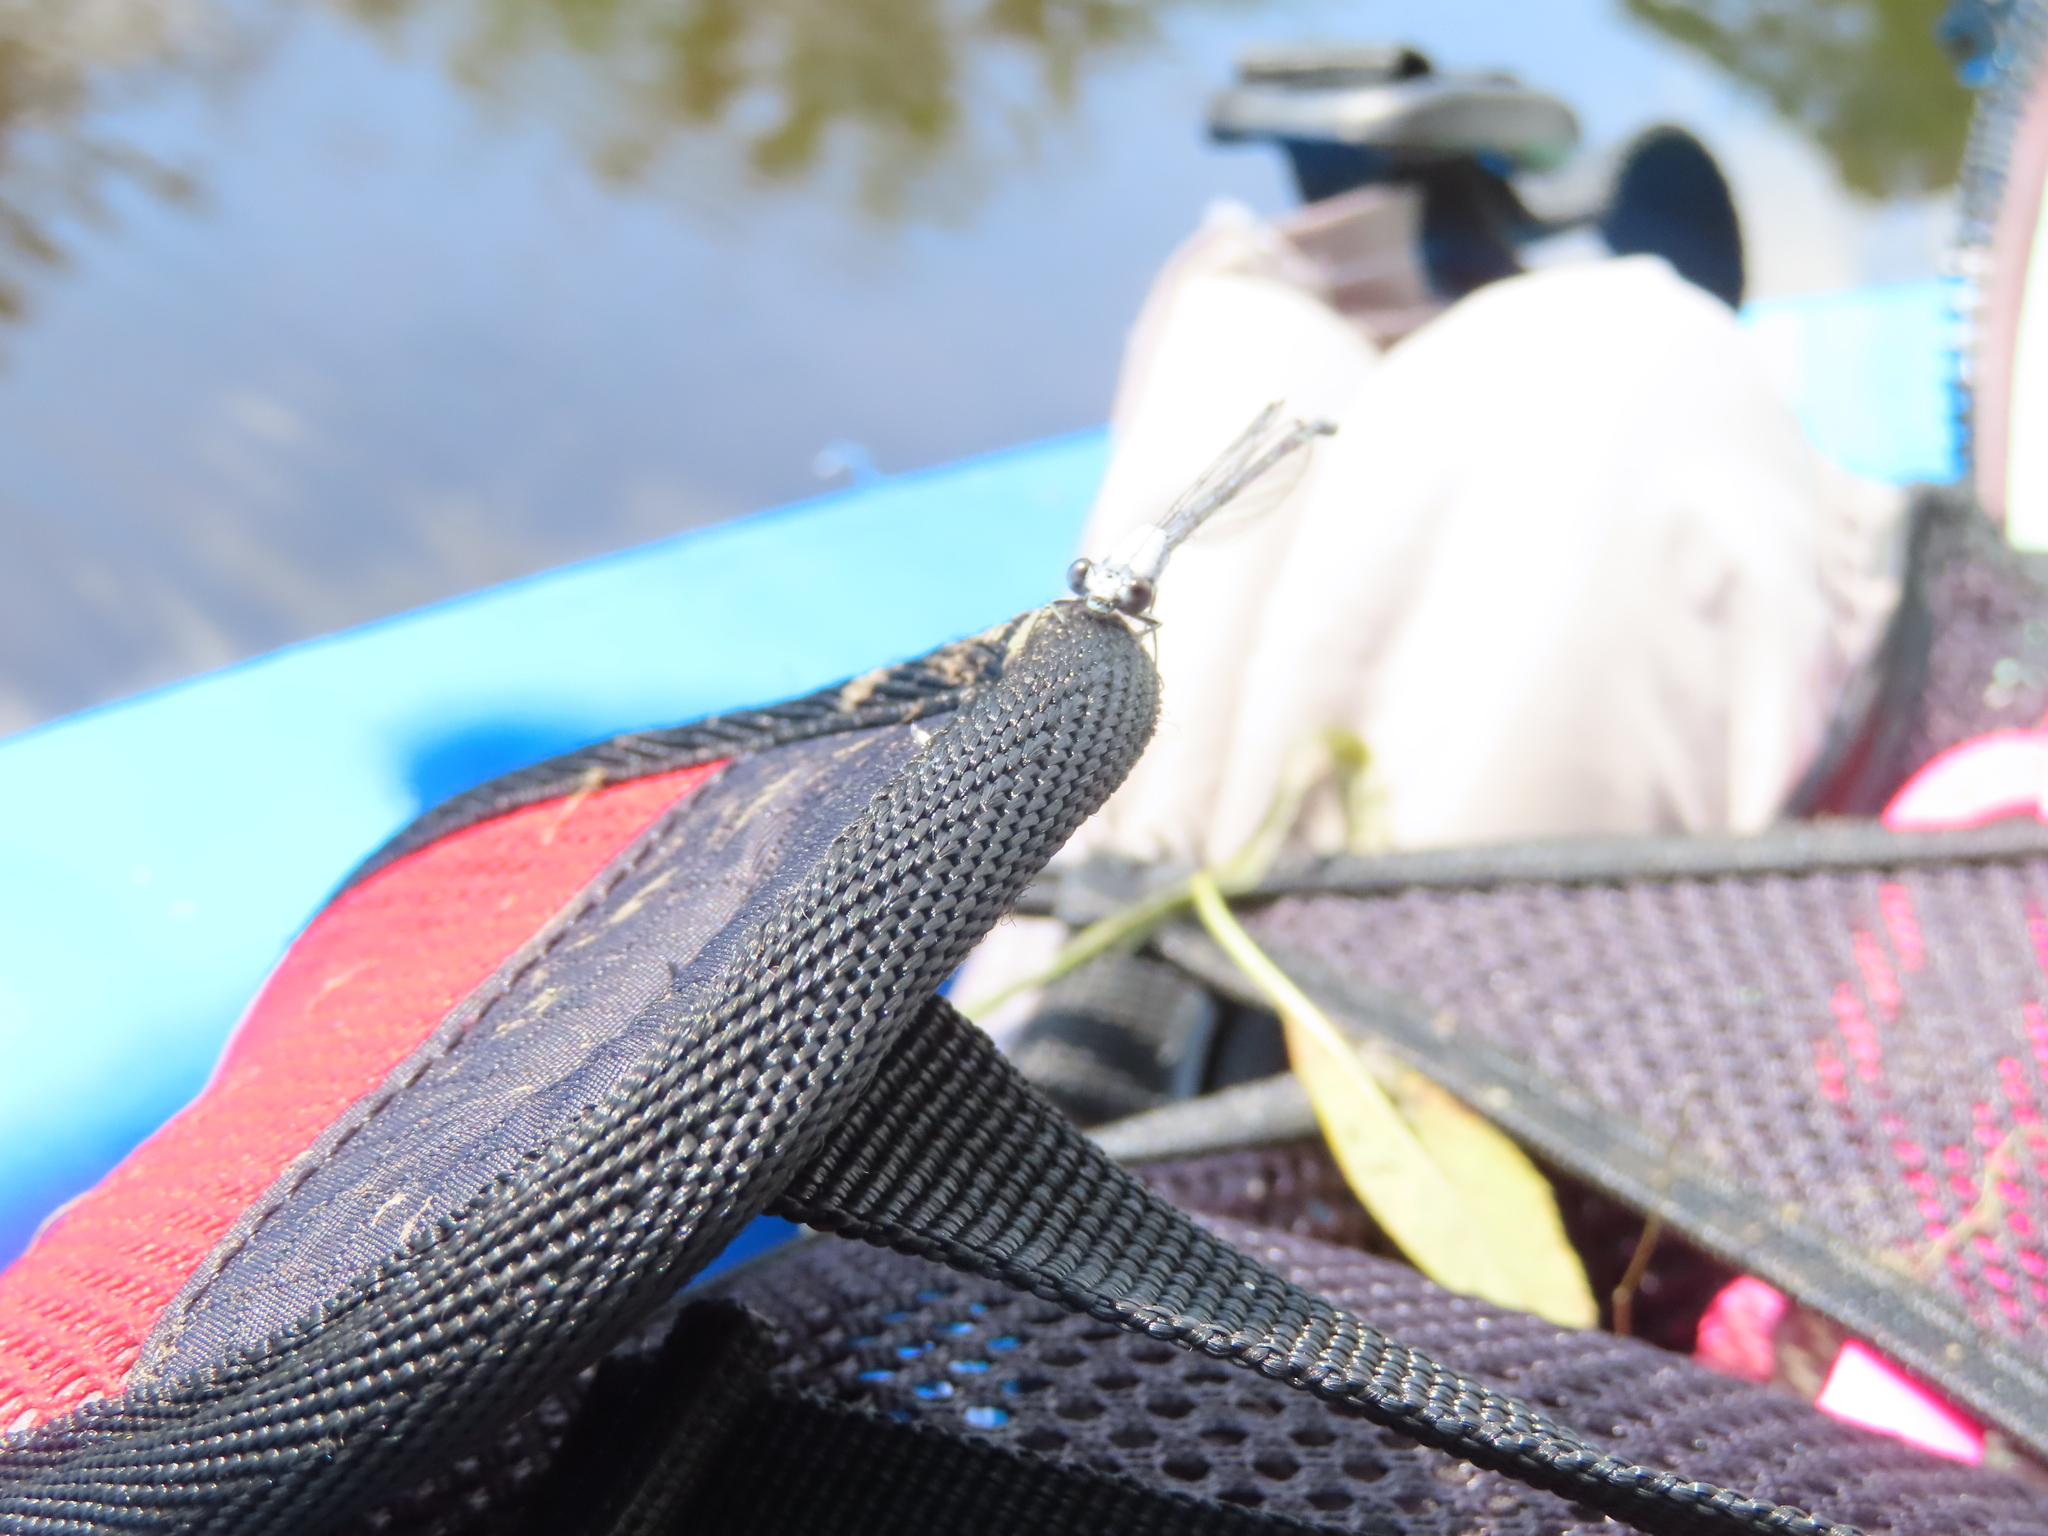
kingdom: Animalia
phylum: Arthropoda
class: Insecta
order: Odonata
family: Coenagrionidae
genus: Argia
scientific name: Argia moesta
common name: Powdered dancer
